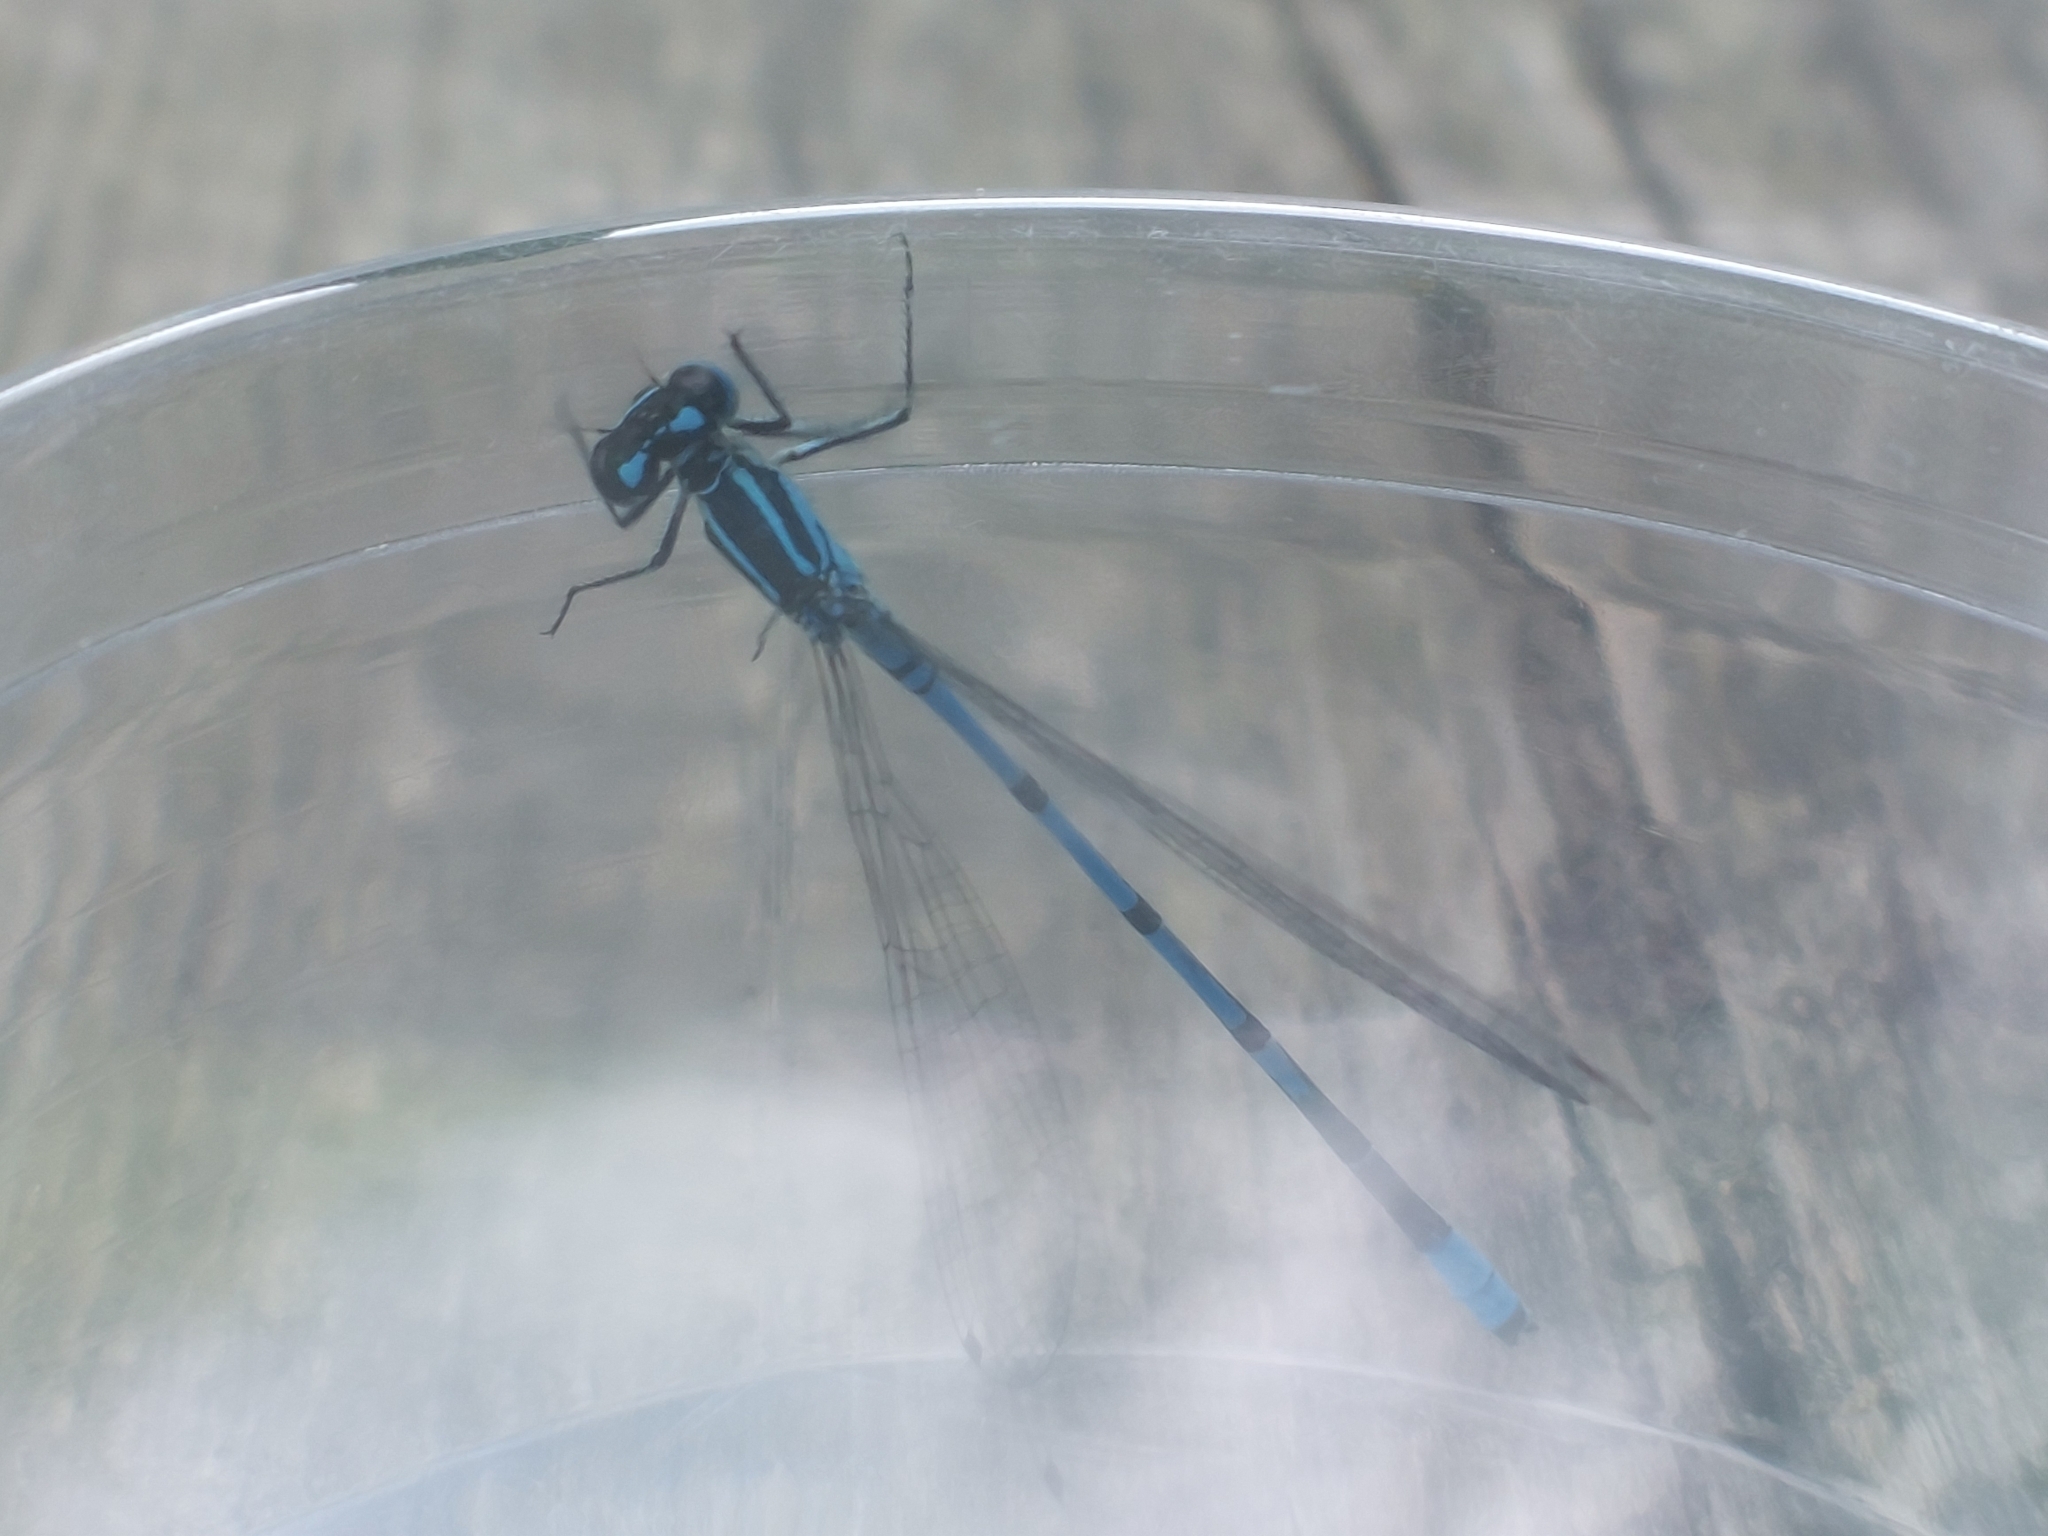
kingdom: Animalia
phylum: Arthropoda
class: Insecta
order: Odonata
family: Coenagrionidae
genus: Coenagrion
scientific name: Coenagrion puella
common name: Azure damselfly
